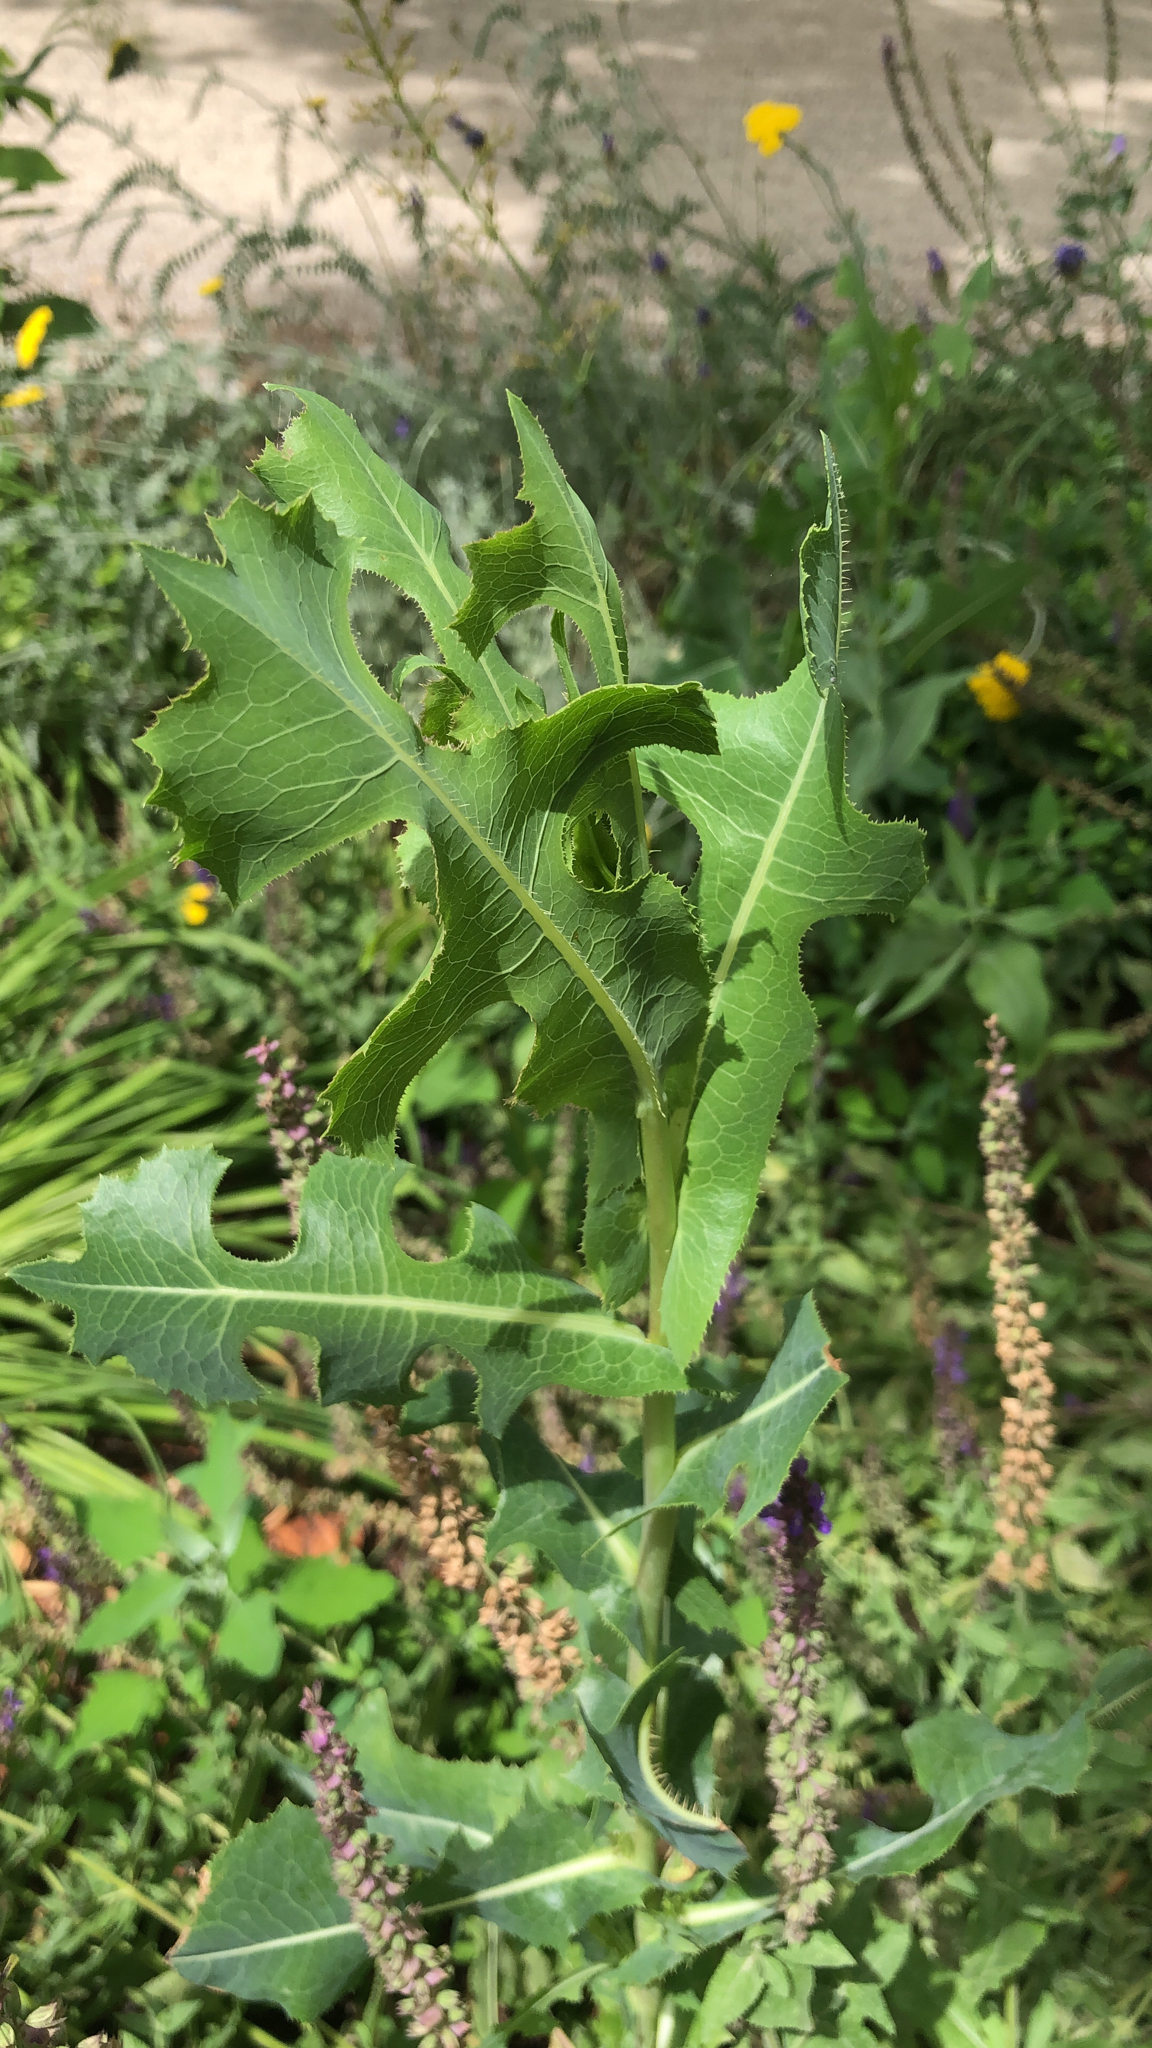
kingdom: Plantae
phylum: Tracheophyta
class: Magnoliopsida
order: Asterales
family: Asteraceae
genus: Lactuca
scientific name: Lactuca serriola
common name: Prickly lettuce
